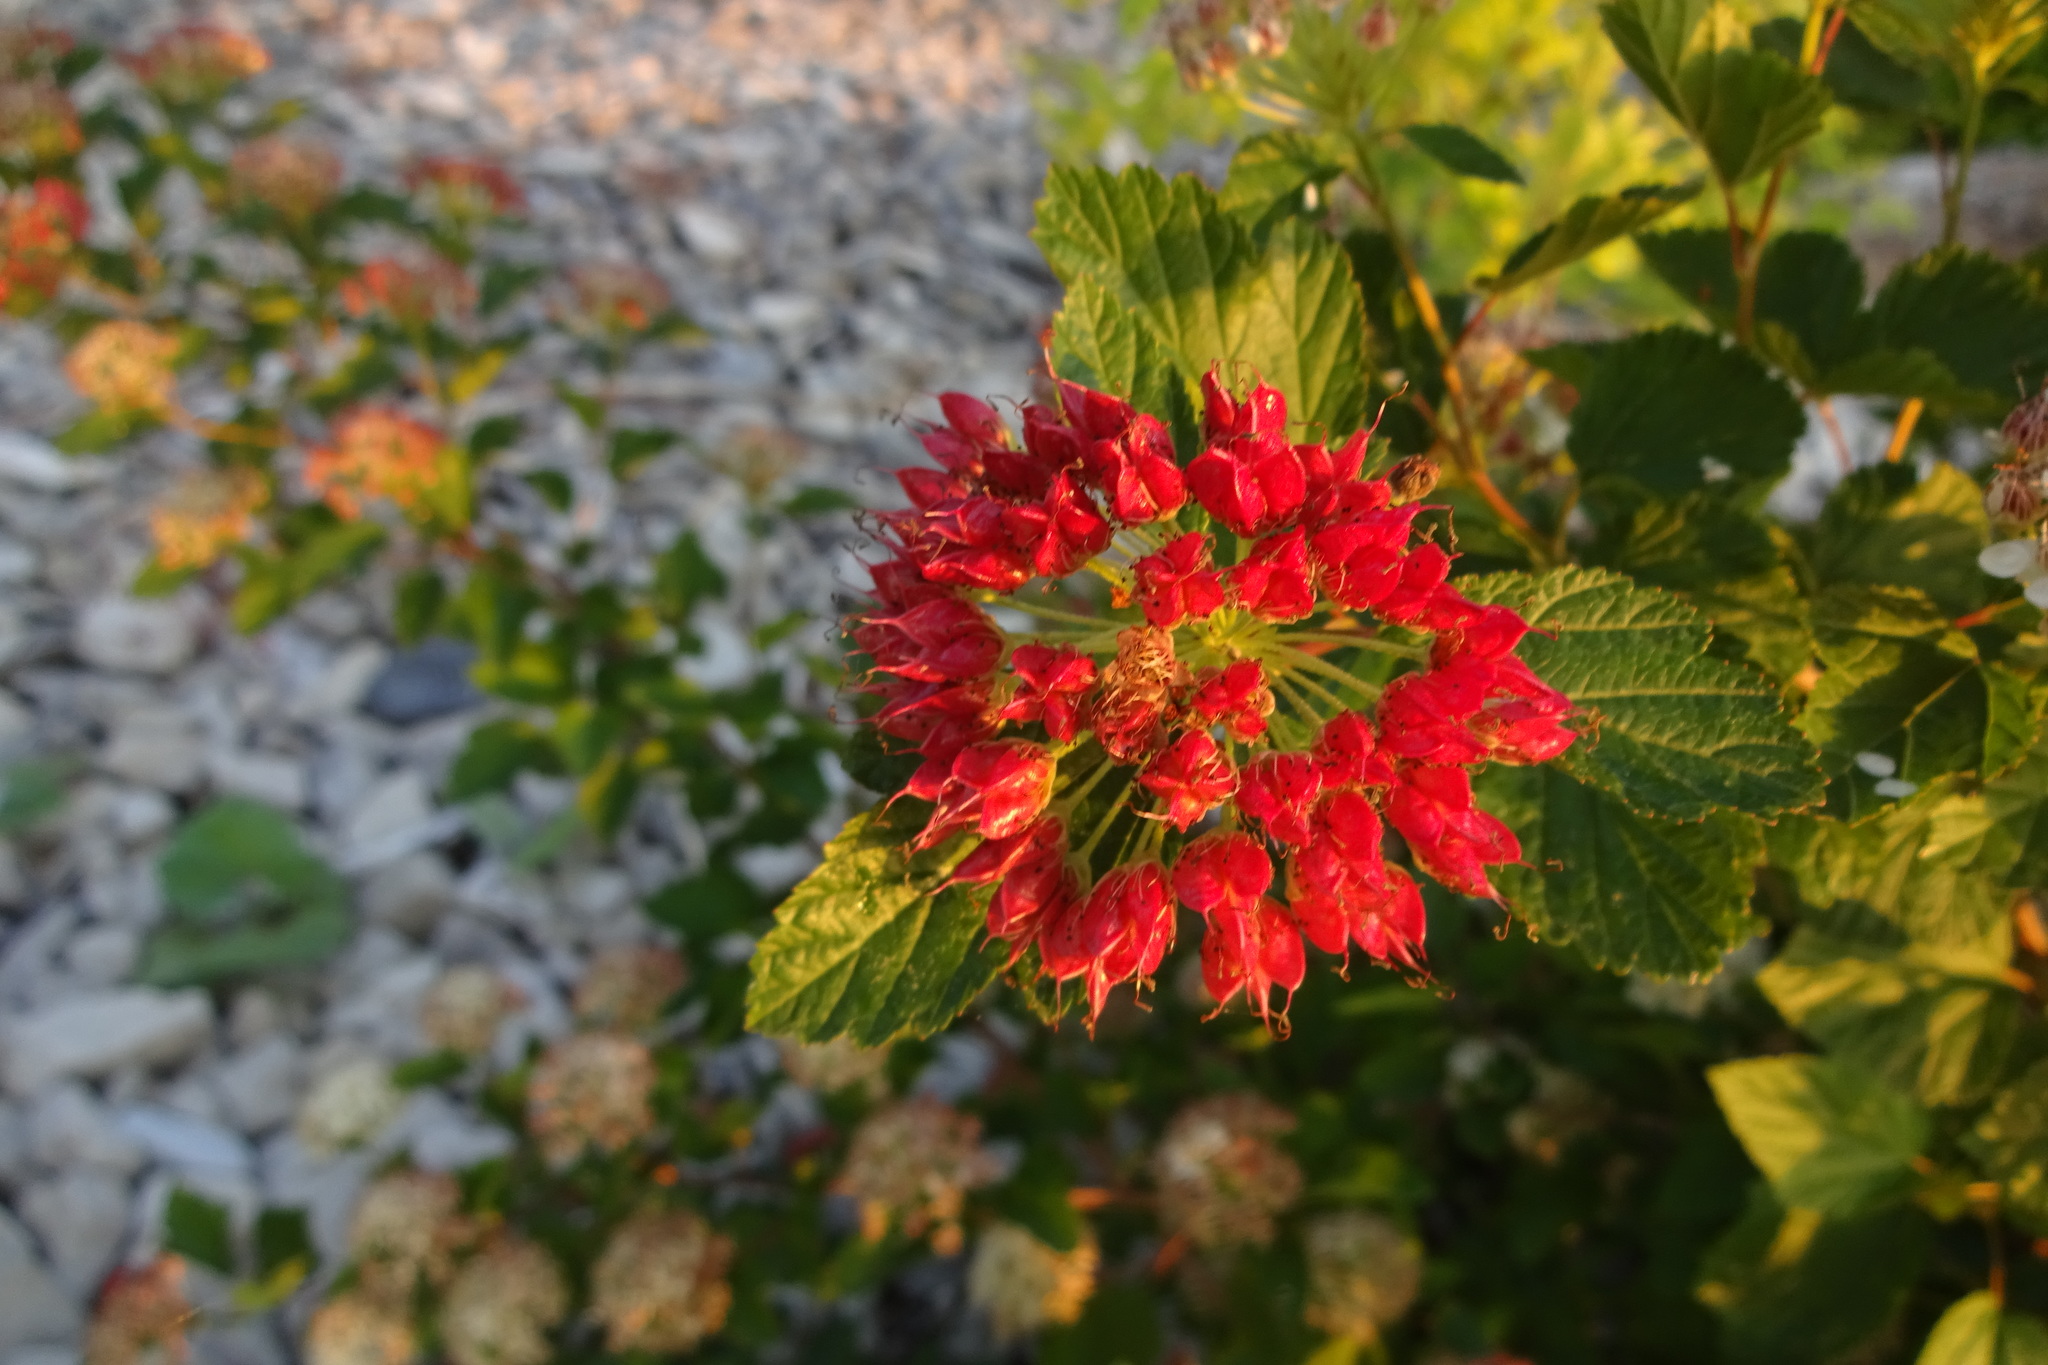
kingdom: Plantae
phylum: Tracheophyta
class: Magnoliopsida
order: Rosales
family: Rosaceae
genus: Physocarpus
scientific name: Physocarpus opulifolius
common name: Ninebark
